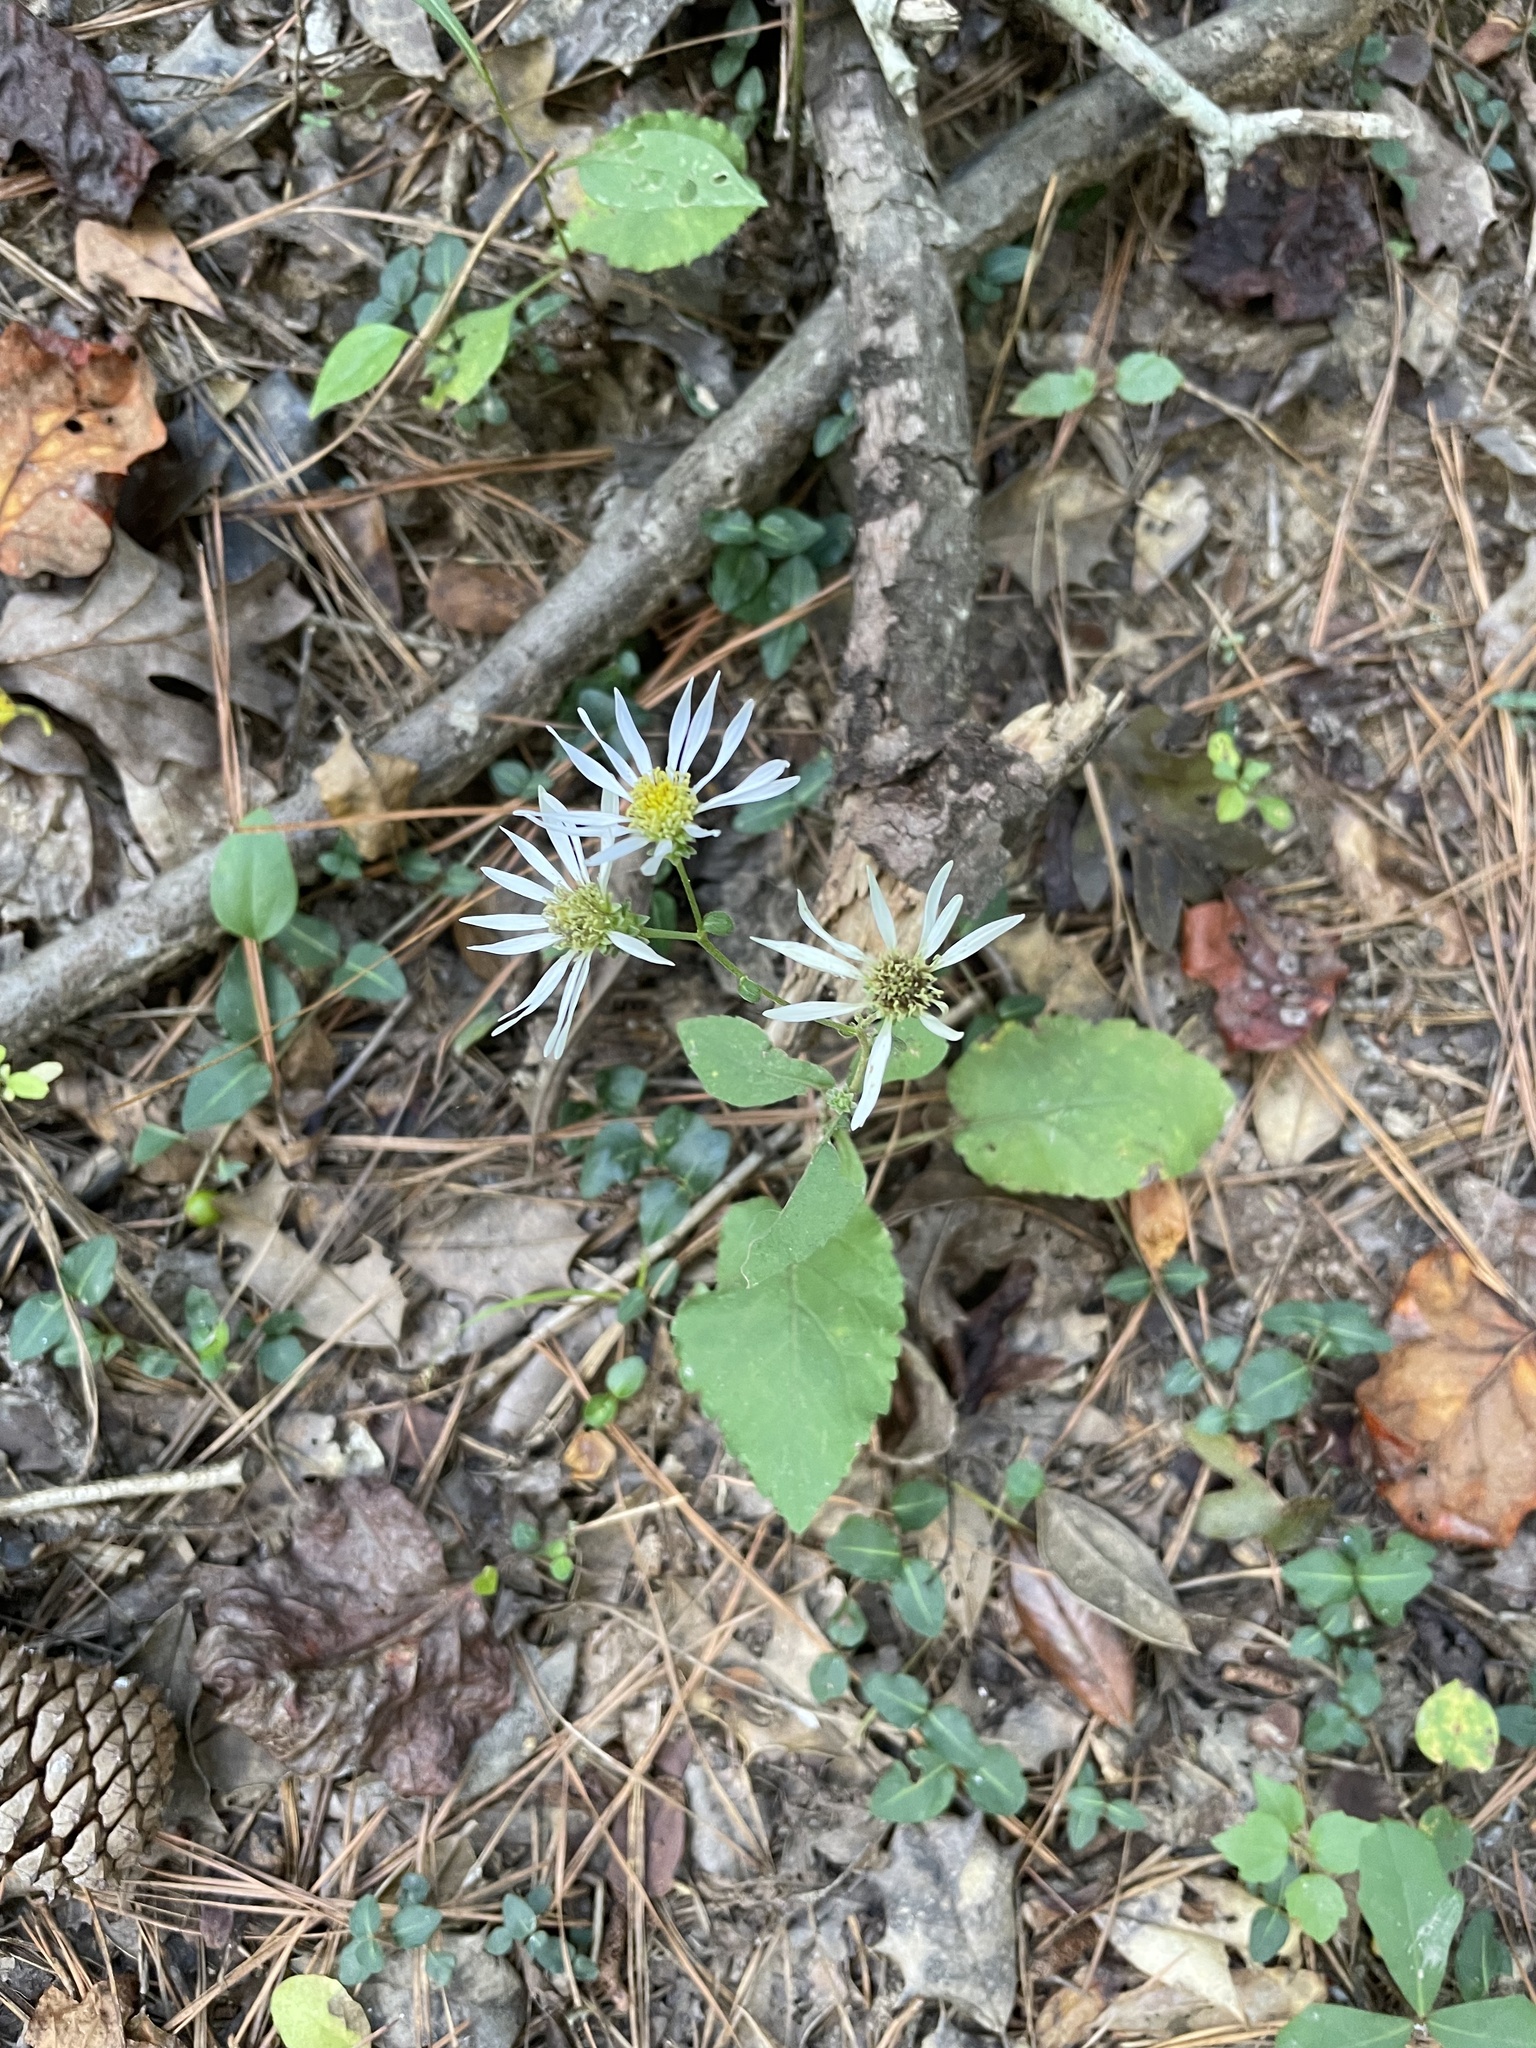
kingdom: Plantae
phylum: Tracheophyta
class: Magnoliopsida
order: Asterales
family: Asteraceae
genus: Eurybia
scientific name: Eurybia mirabilis
